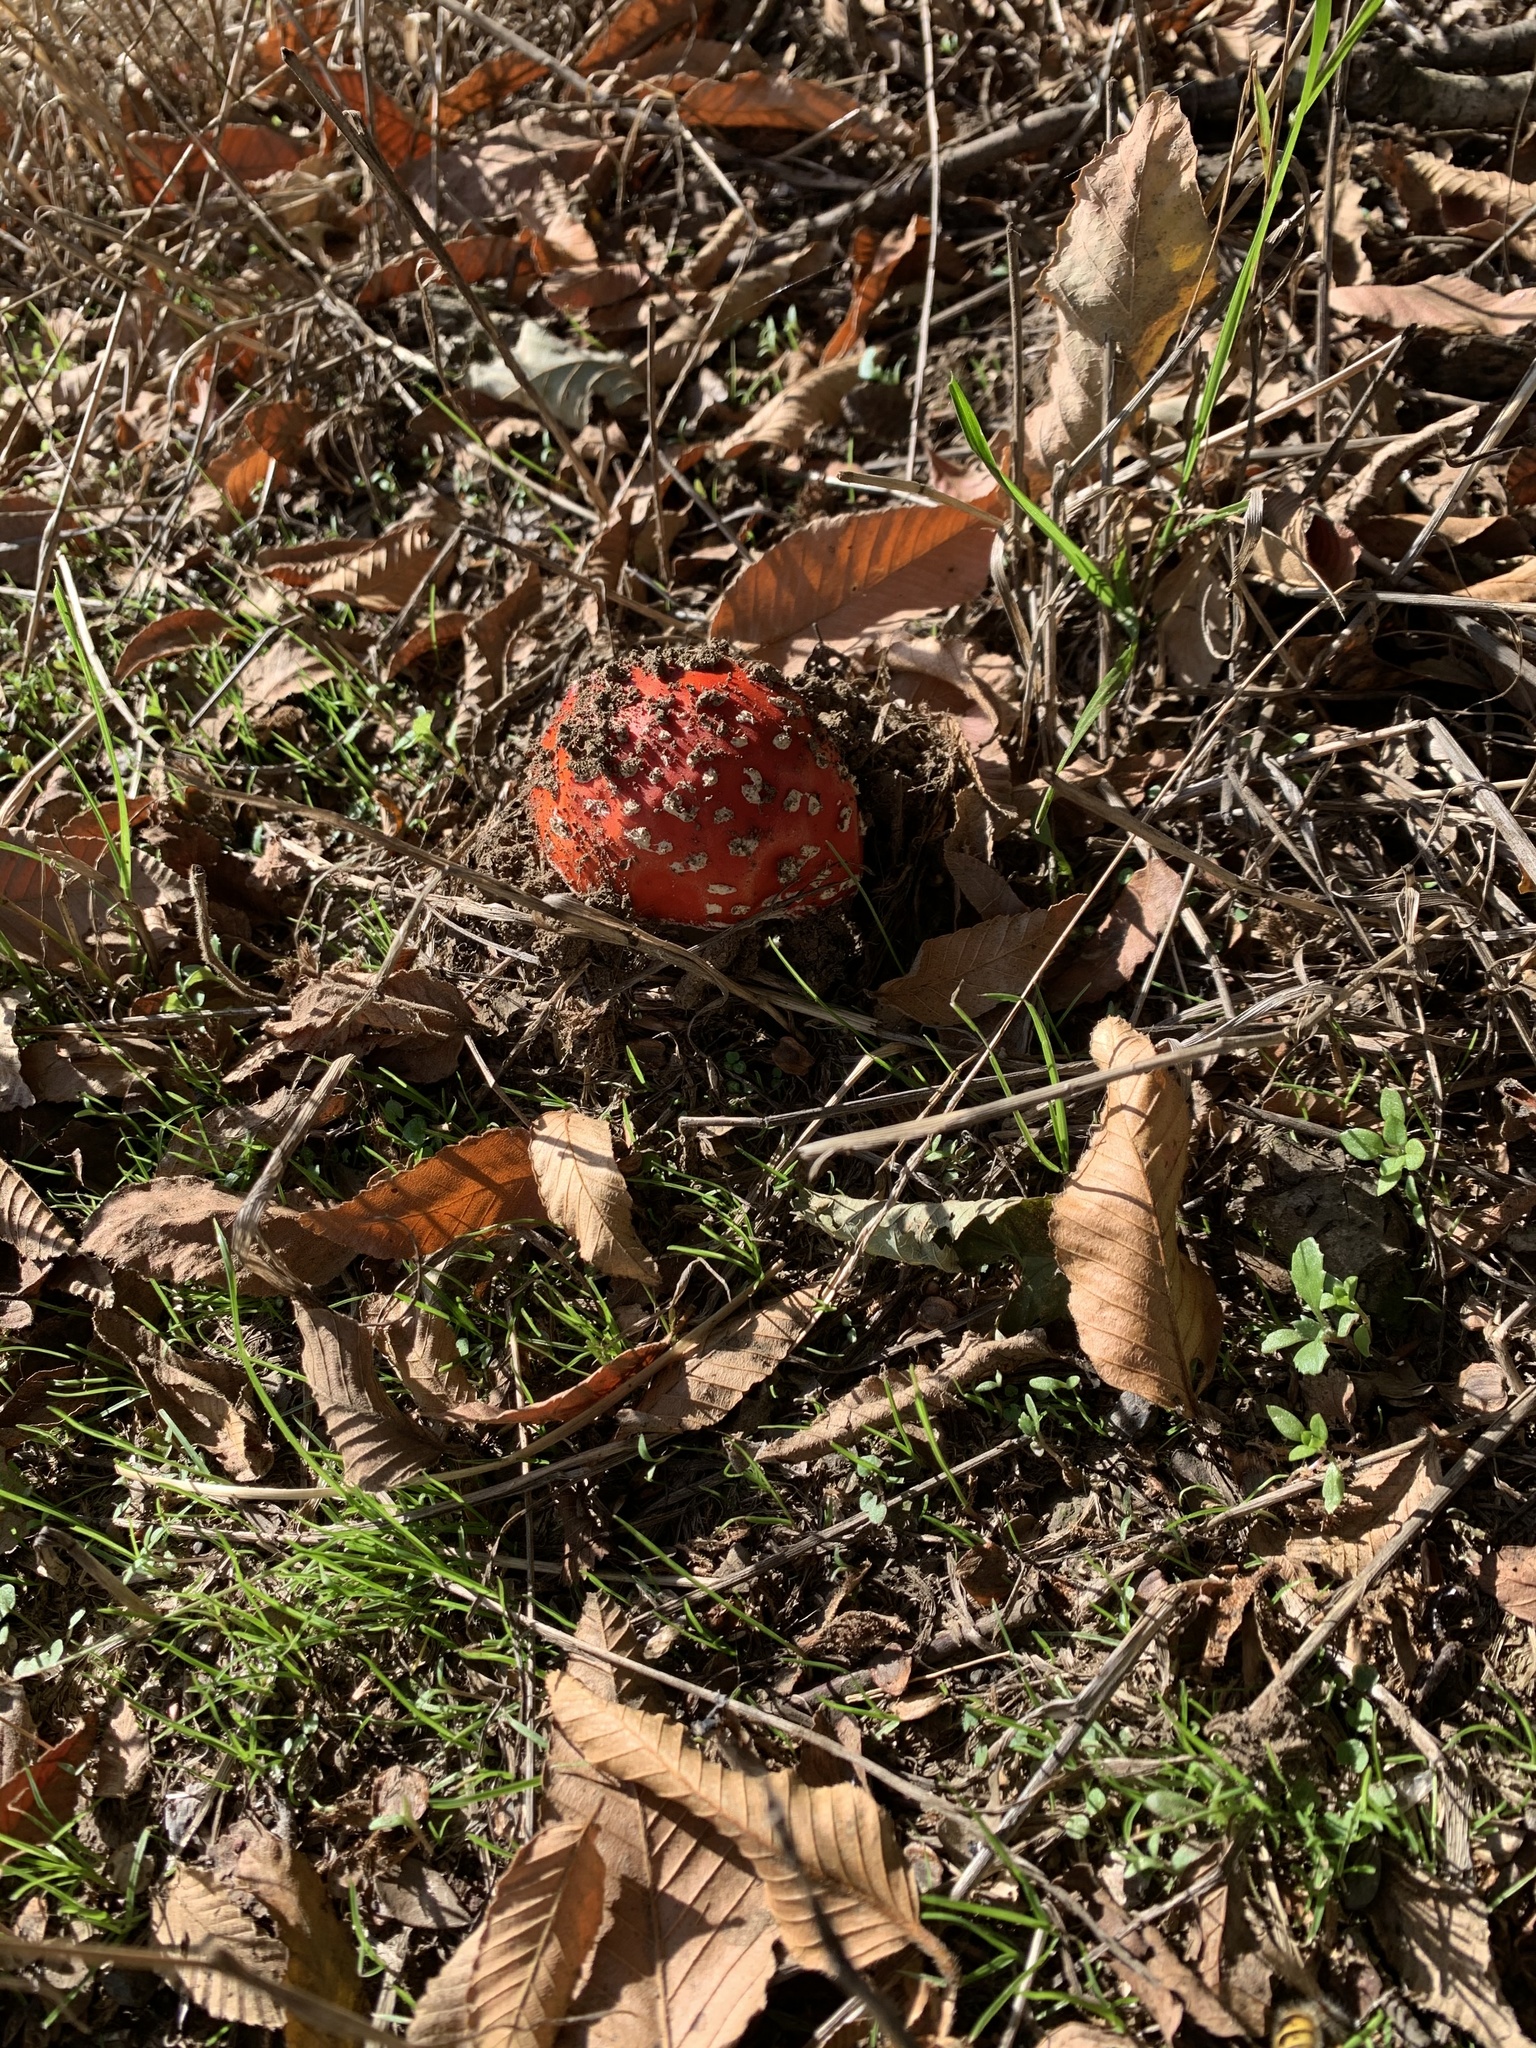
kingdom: Fungi
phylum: Basidiomycota
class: Agaricomycetes
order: Agaricales
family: Amanitaceae
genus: Amanita
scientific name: Amanita muscaria
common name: Fly agaric
